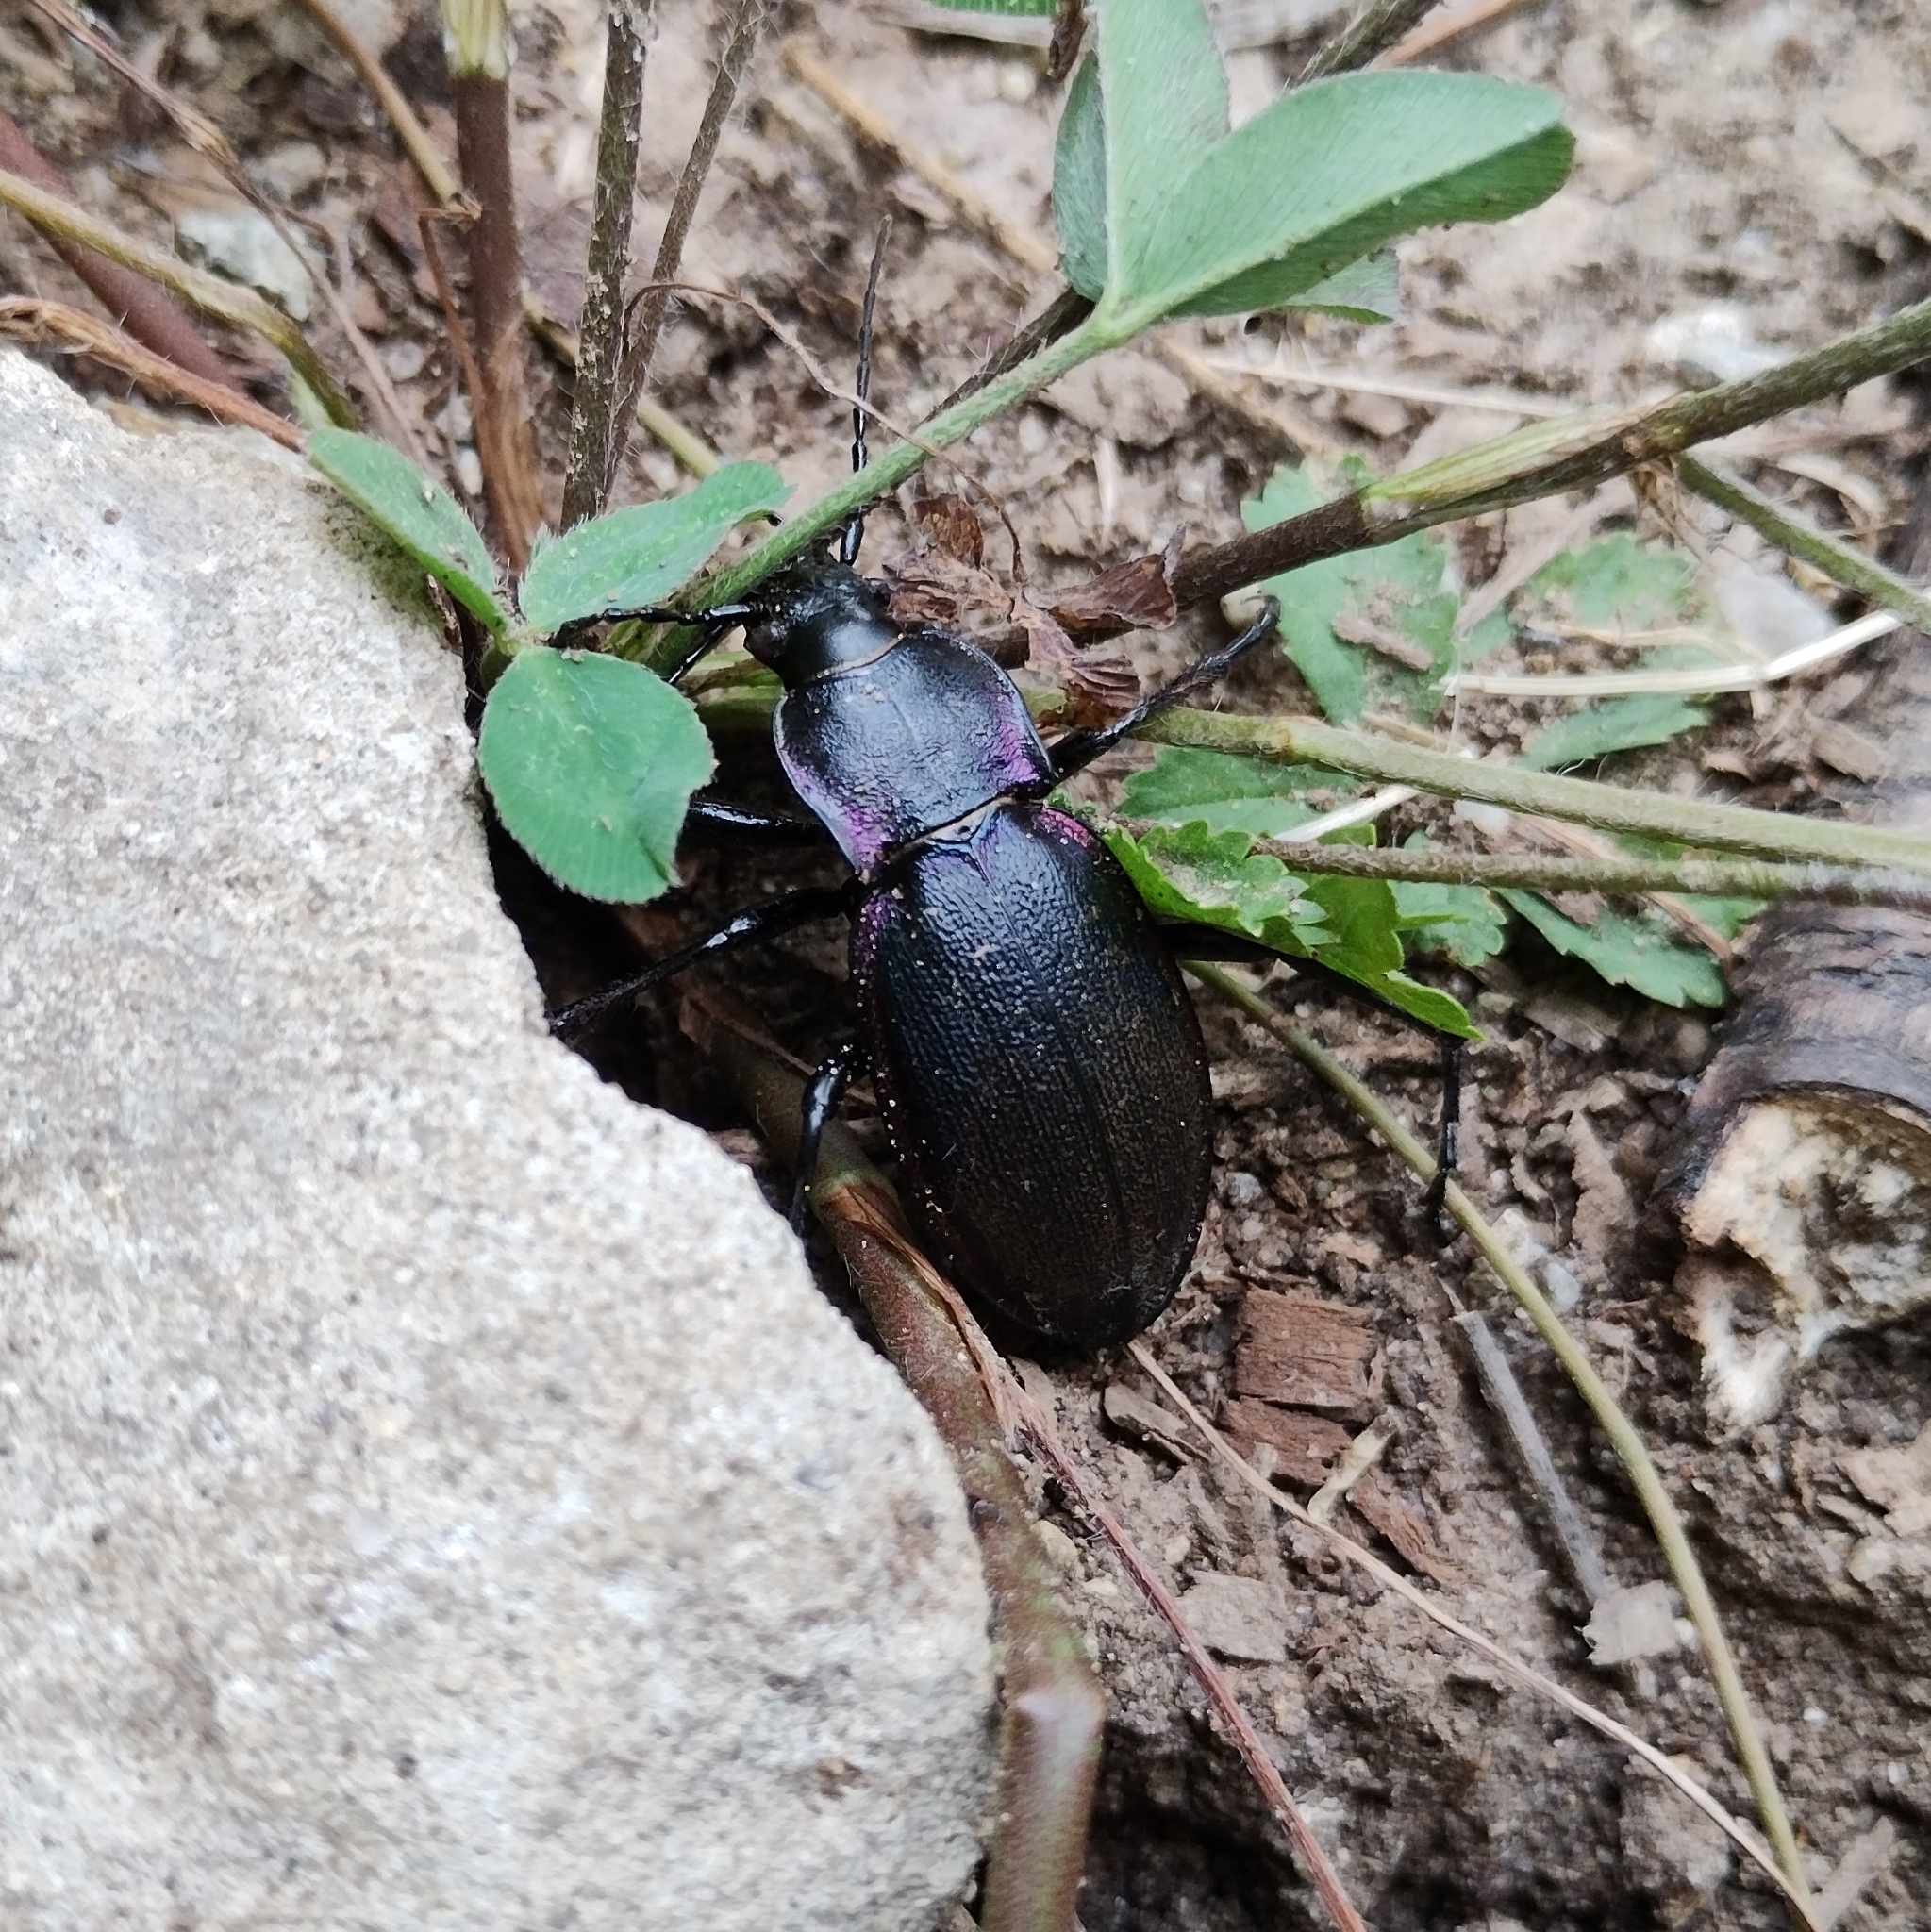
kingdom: Animalia
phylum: Arthropoda
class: Insecta
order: Coleoptera
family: Carabidae
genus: Carabus
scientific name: Carabus violaceus
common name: Violet ground beetle
